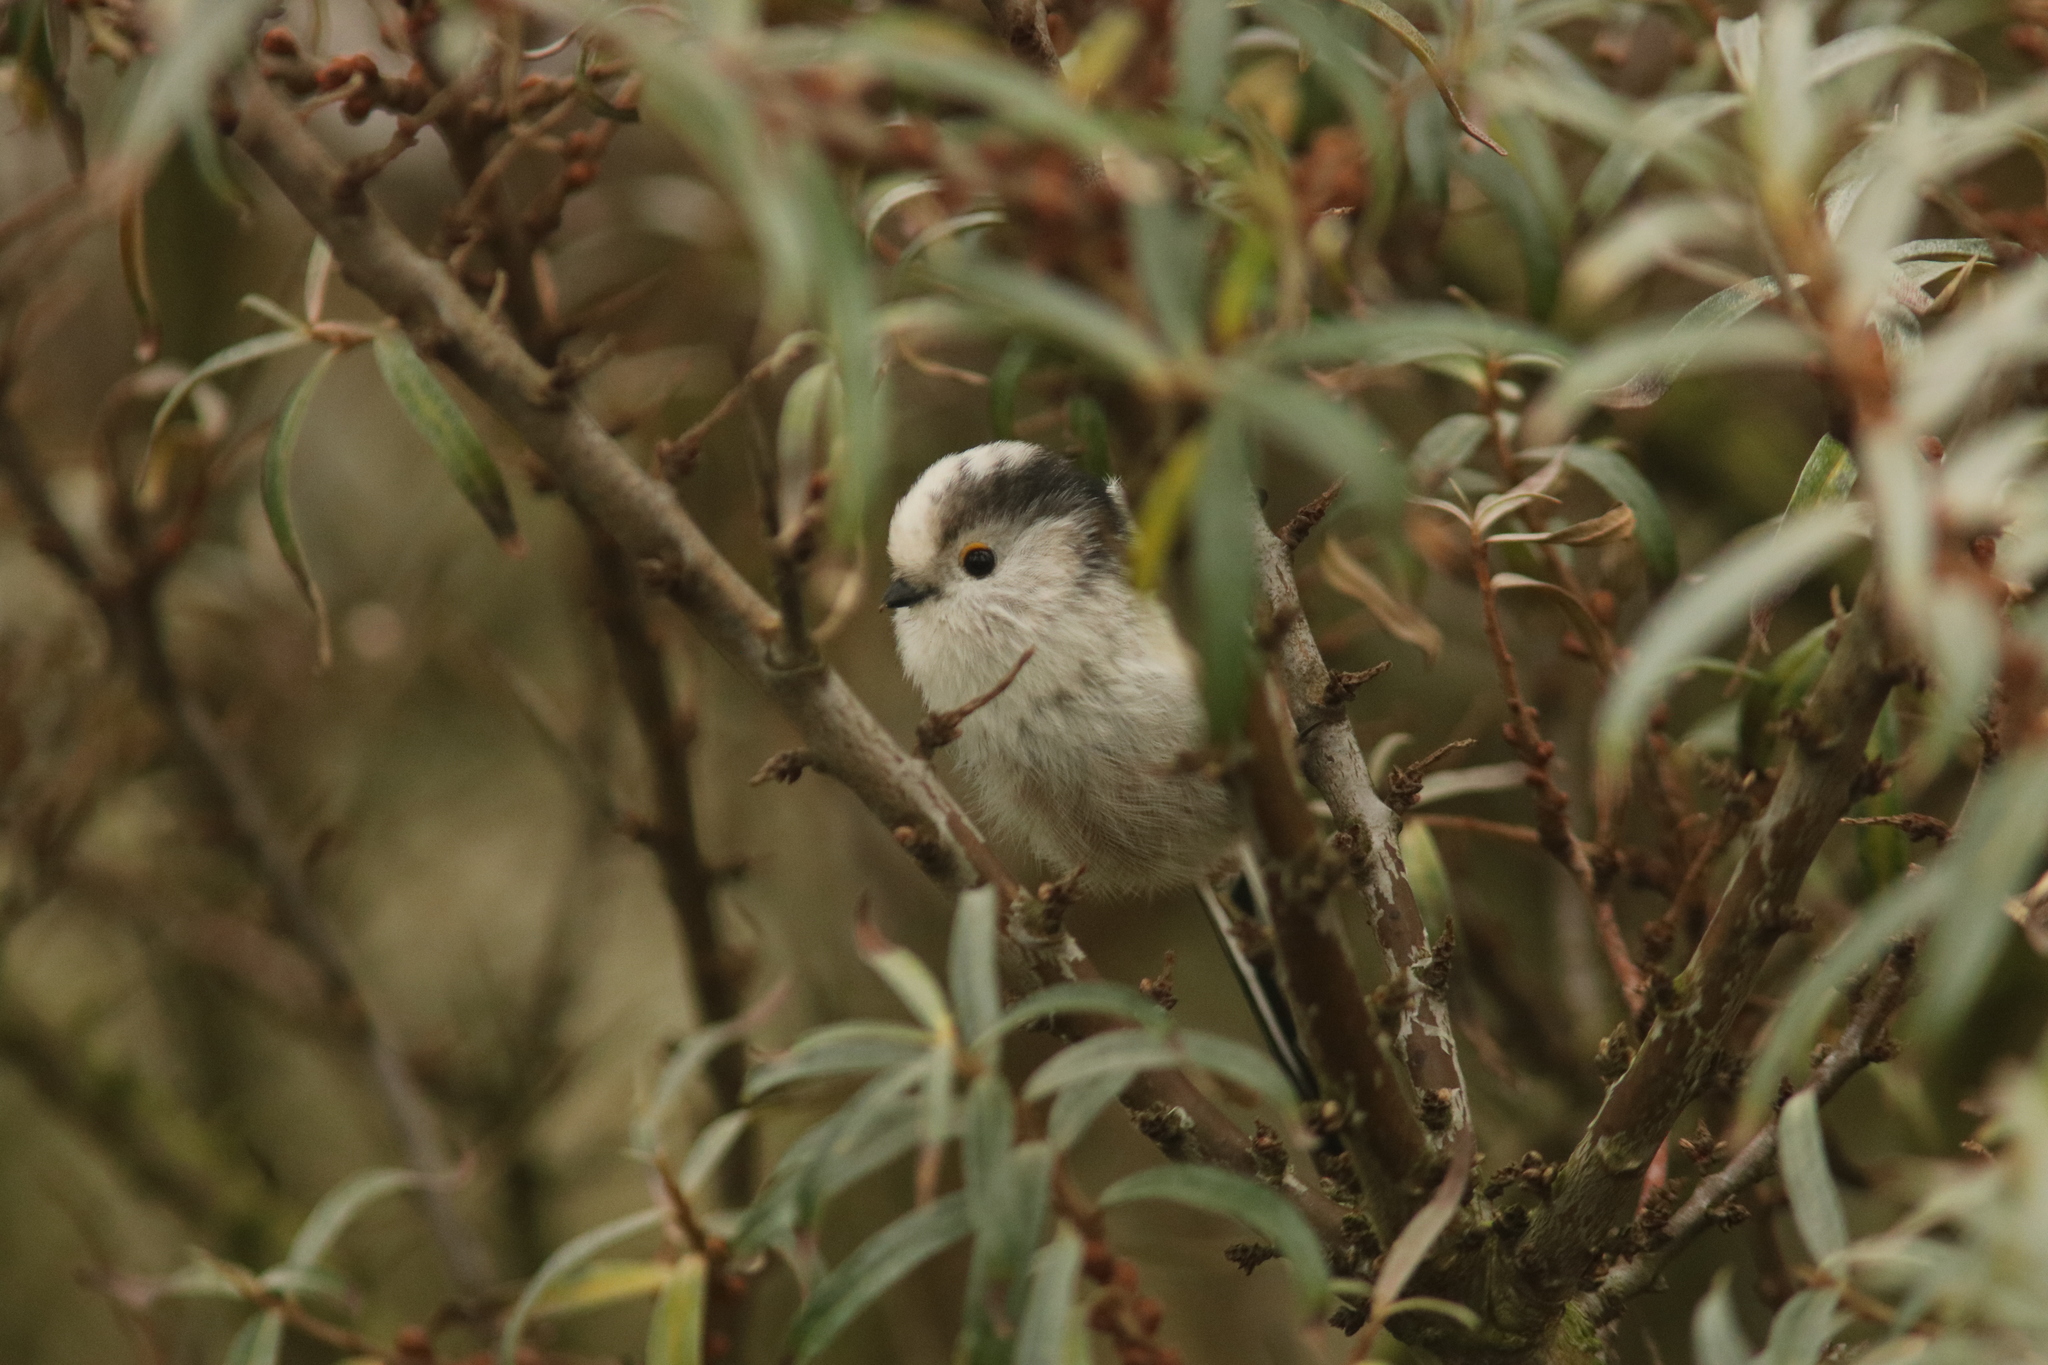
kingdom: Animalia
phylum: Chordata
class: Aves
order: Passeriformes
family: Aegithalidae
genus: Aegithalos
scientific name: Aegithalos caudatus
